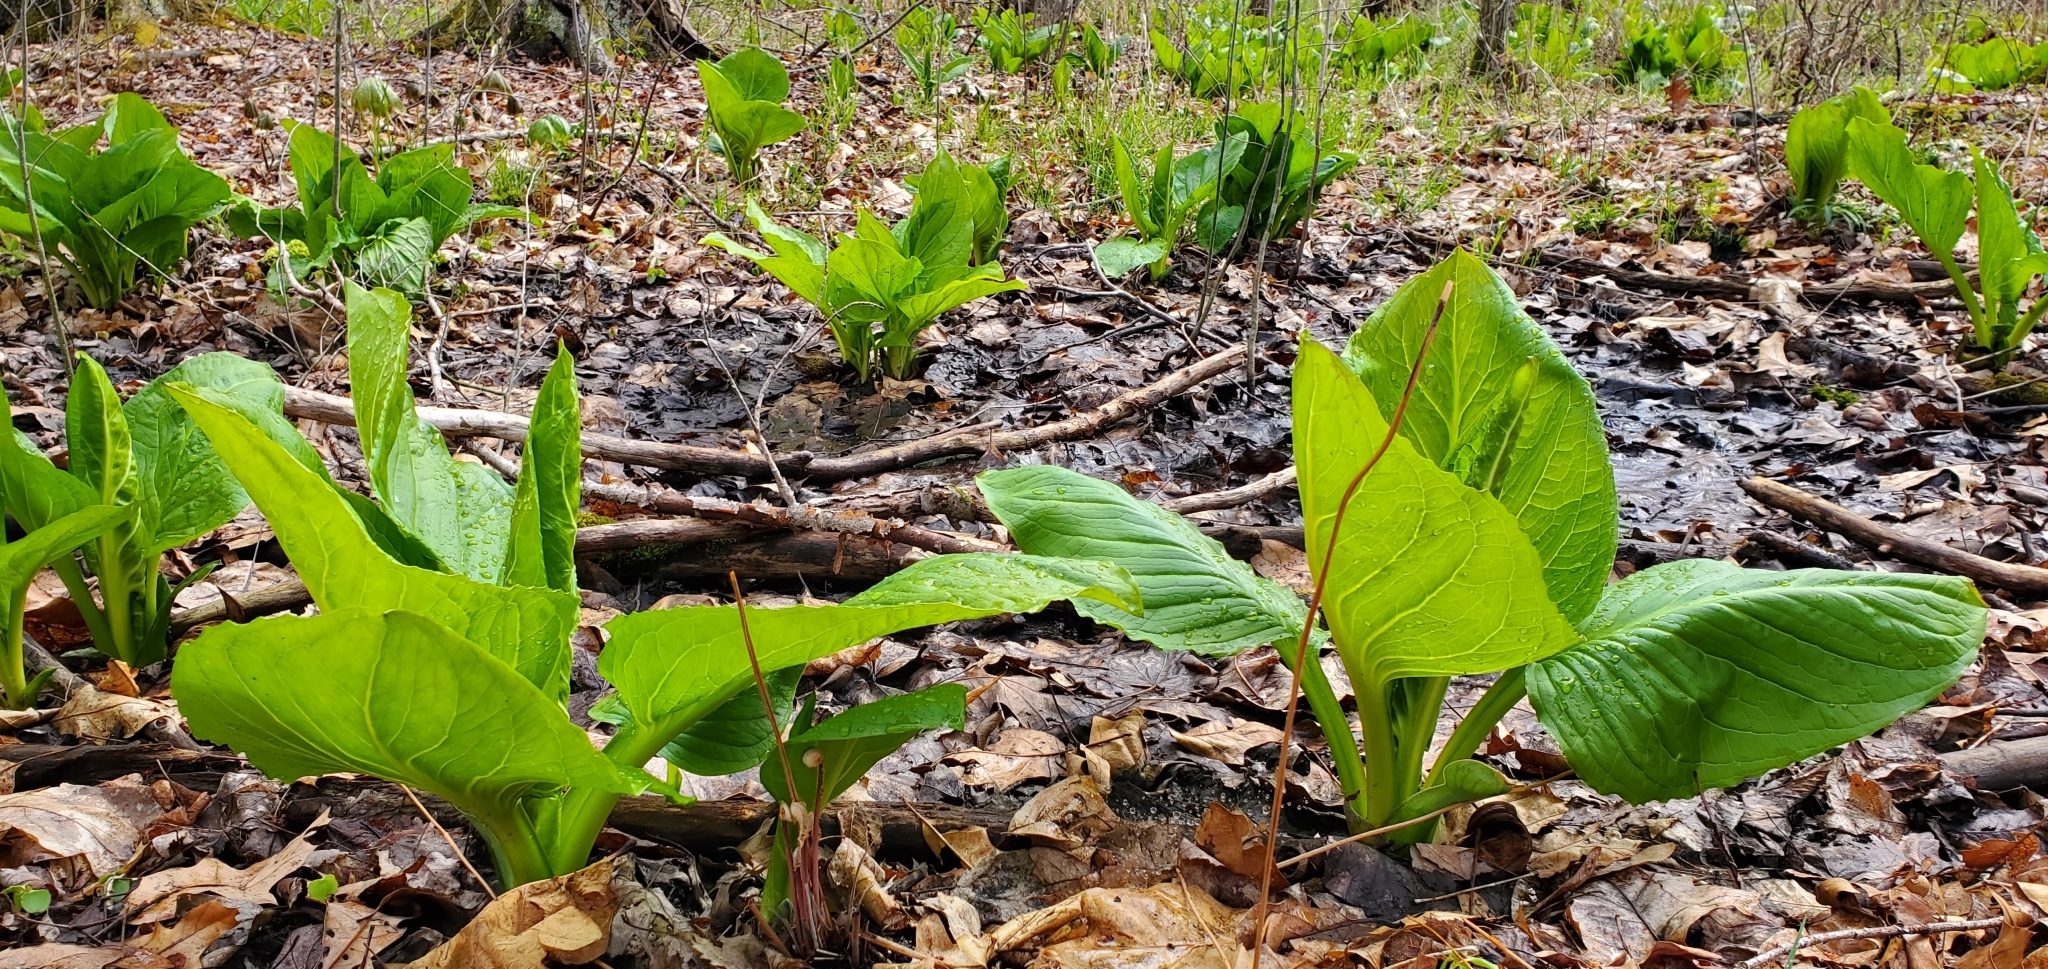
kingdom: Plantae
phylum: Tracheophyta
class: Liliopsida
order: Alismatales
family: Araceae
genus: Symplocarpus
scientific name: Symplocarpus foetidus
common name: Eastern skunk cabbage
